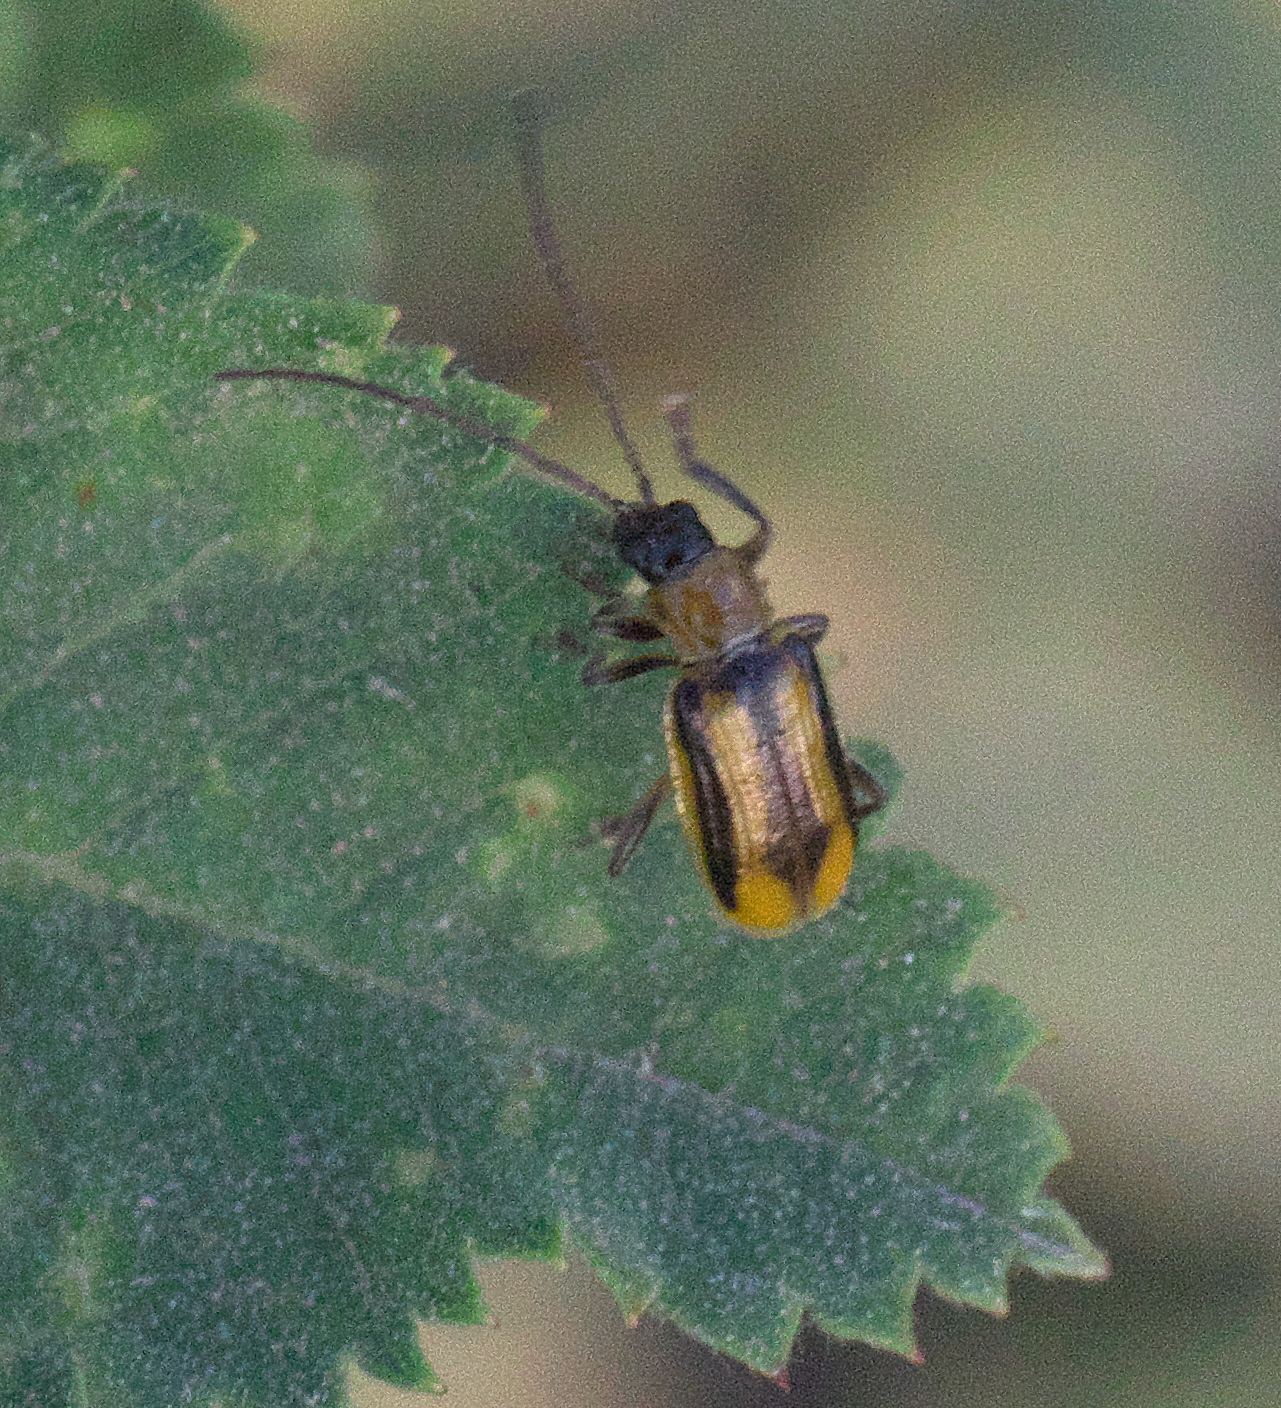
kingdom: Animalia
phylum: Arthropoda
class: Insecta
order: Coleoptera
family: Chrysomelidae
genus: Diabrotica
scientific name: Diabrotica virgifera
